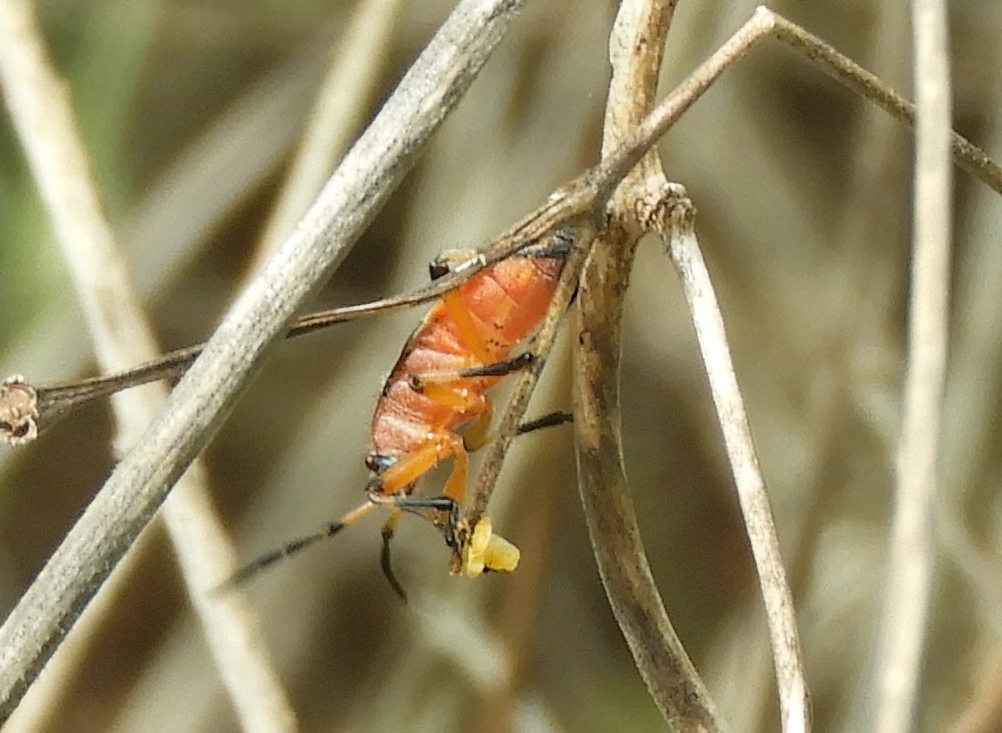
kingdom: Animalia
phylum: Arthropoda
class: Insecta
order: Hemiptera
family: Largidae
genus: Largus
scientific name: Largus
